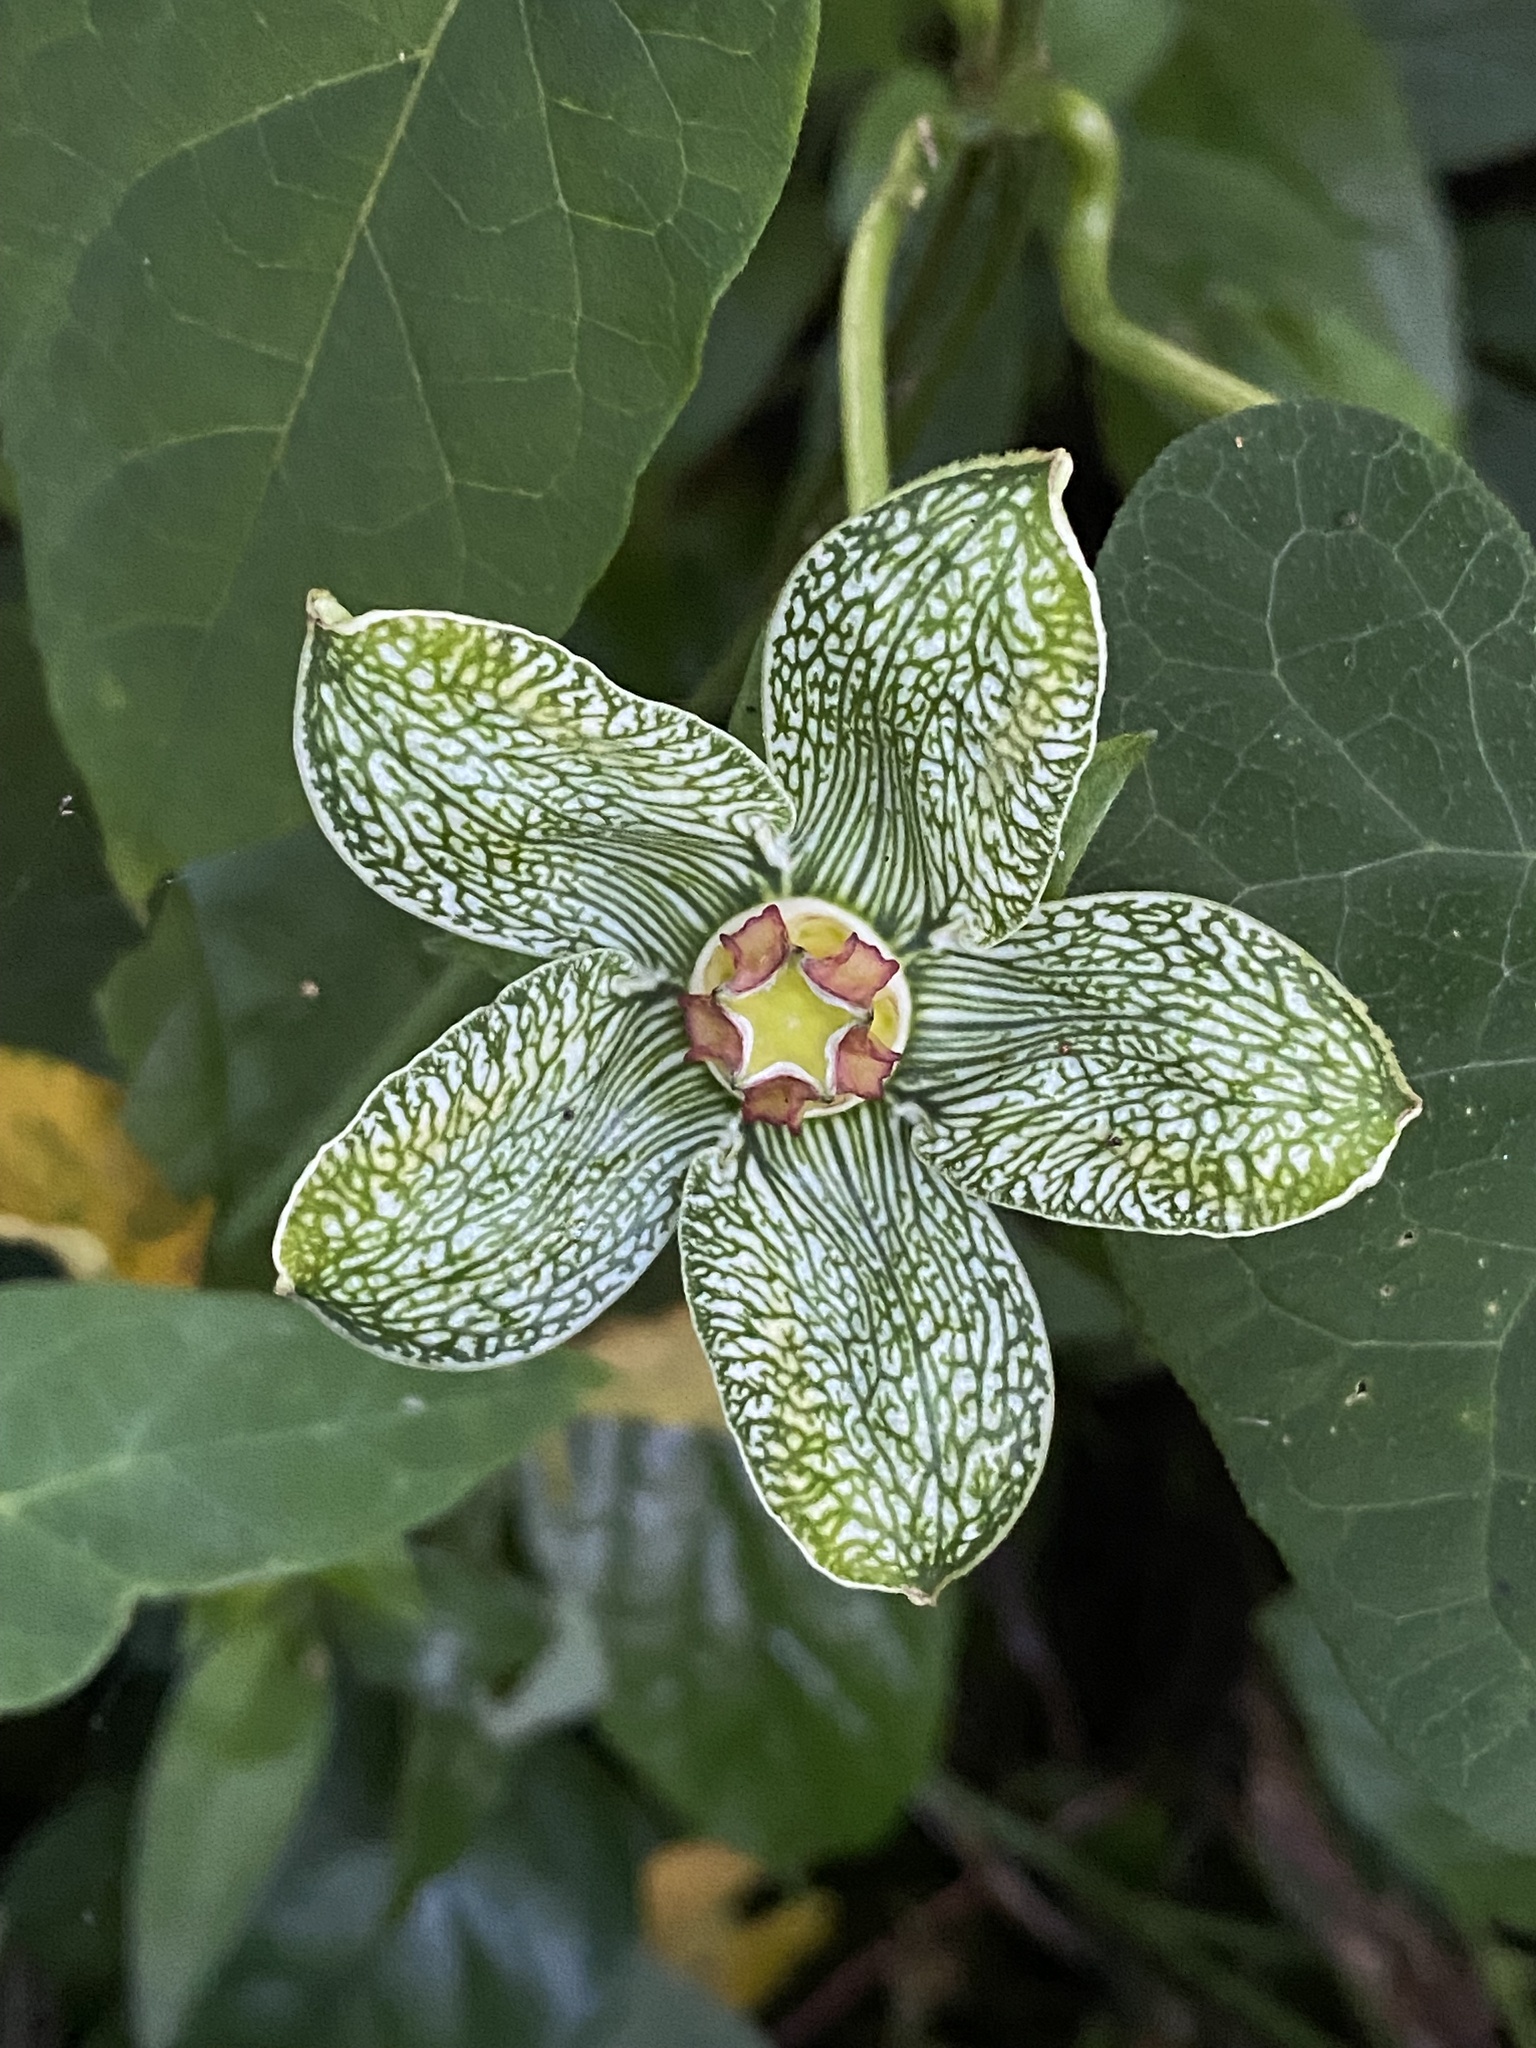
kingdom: Plantae
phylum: Tracheophyta
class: Magnoliopsida
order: Gentianales
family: Apocynaceae
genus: Gonolobus
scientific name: Gonolobus incerianus
